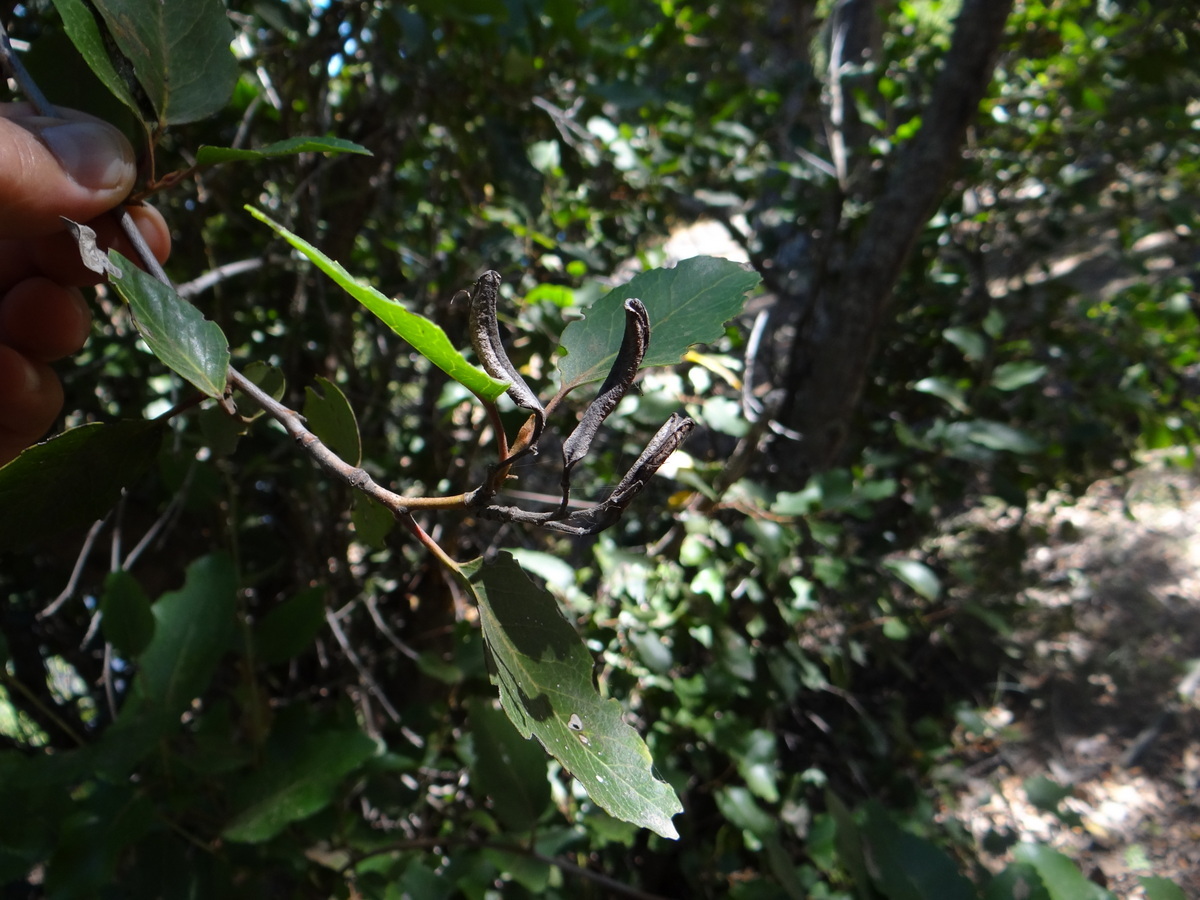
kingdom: Plantae
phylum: Tracheophyta
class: Magnoliopsida
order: Proteales
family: Proteaceae
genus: Lomatia
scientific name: Lomatia hirsuta
